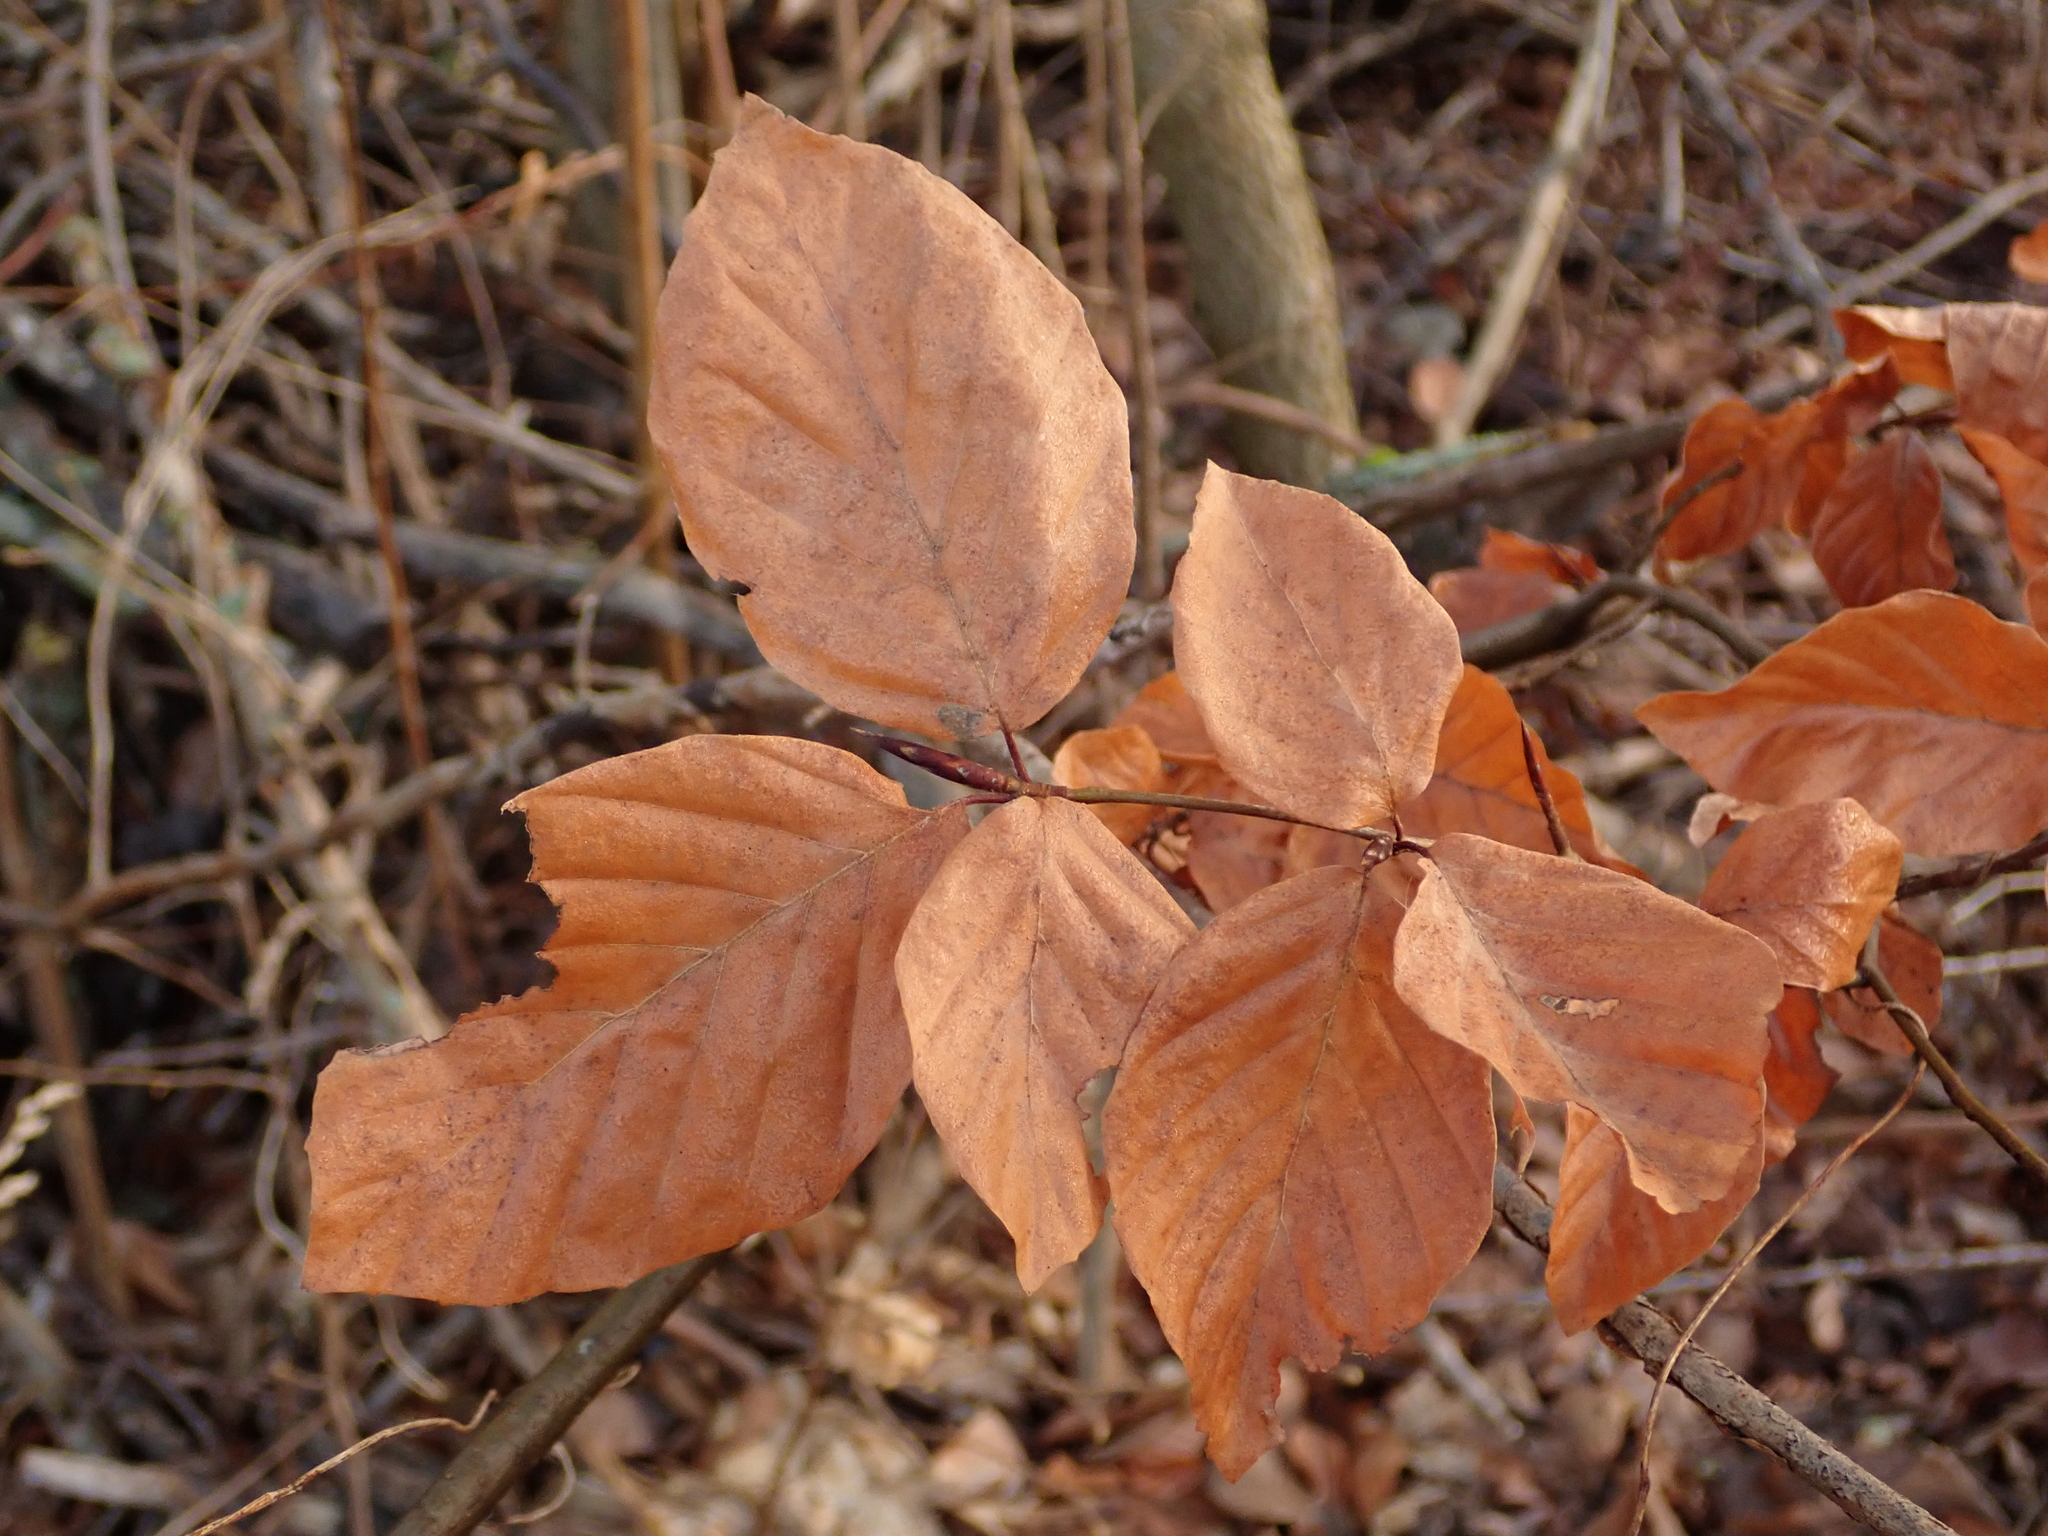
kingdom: Plantae
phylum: Tracheophyta
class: Magnoliopsida
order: Fagales
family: Fagaceae
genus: Fagus
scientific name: Fagus sylvatica
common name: Beech
